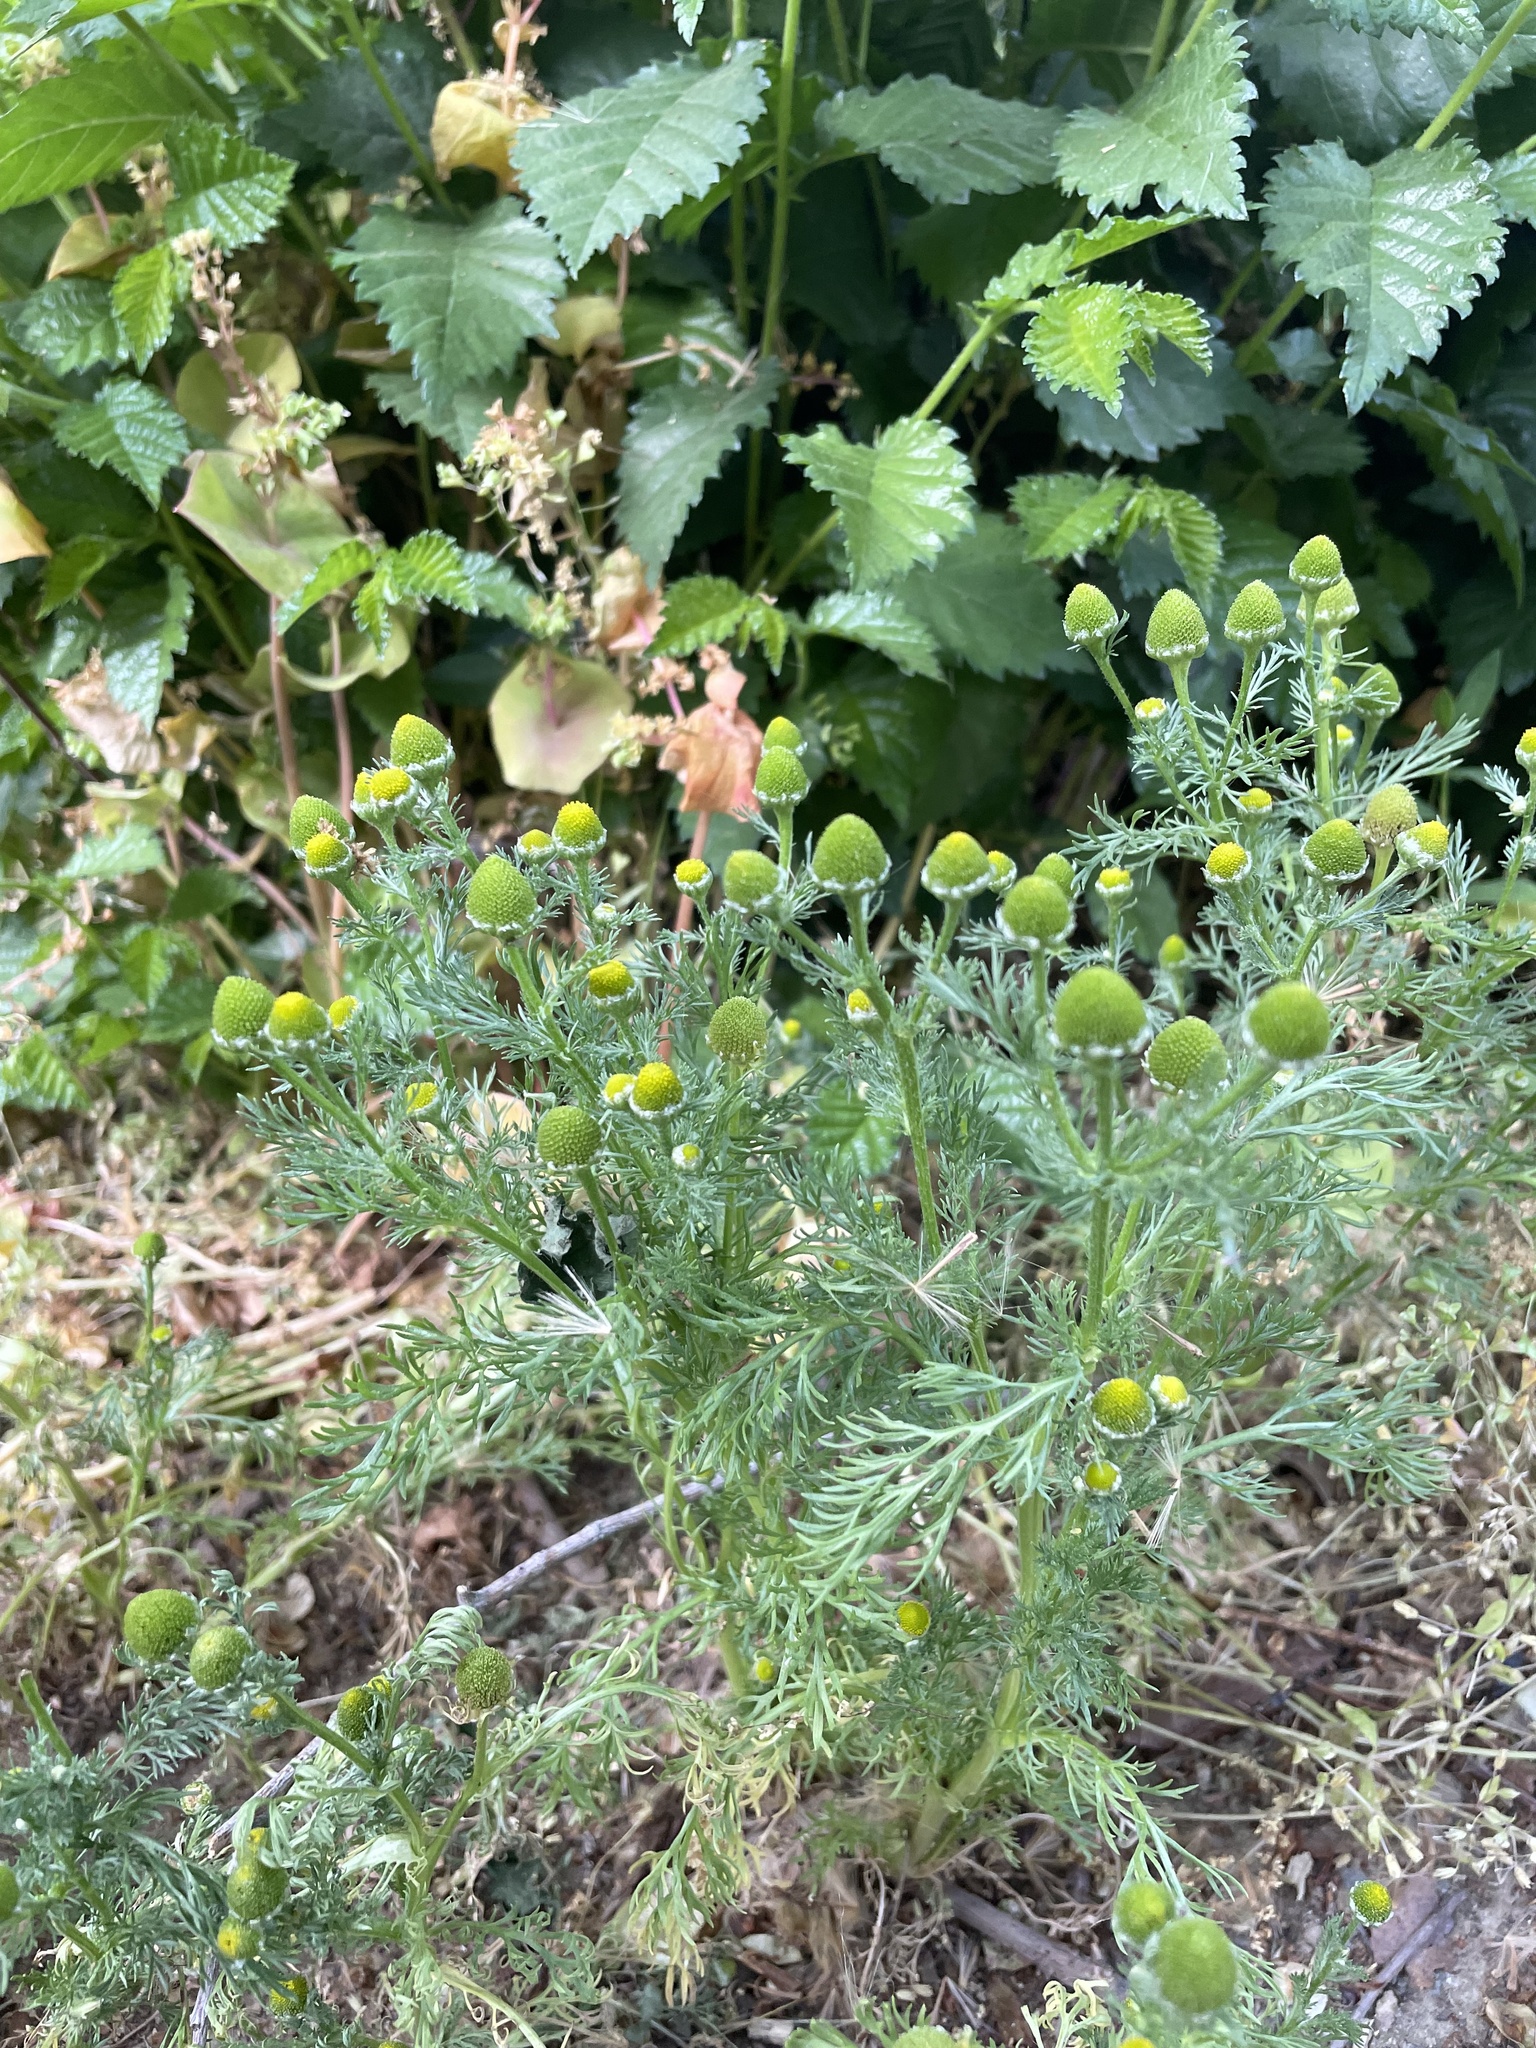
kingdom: Plantae
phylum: Tracheophyta
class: Magnoliopsida
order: Asterales
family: Asteraceae
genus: Matricaria
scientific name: Matricaria discoidea
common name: Disc mayweed
